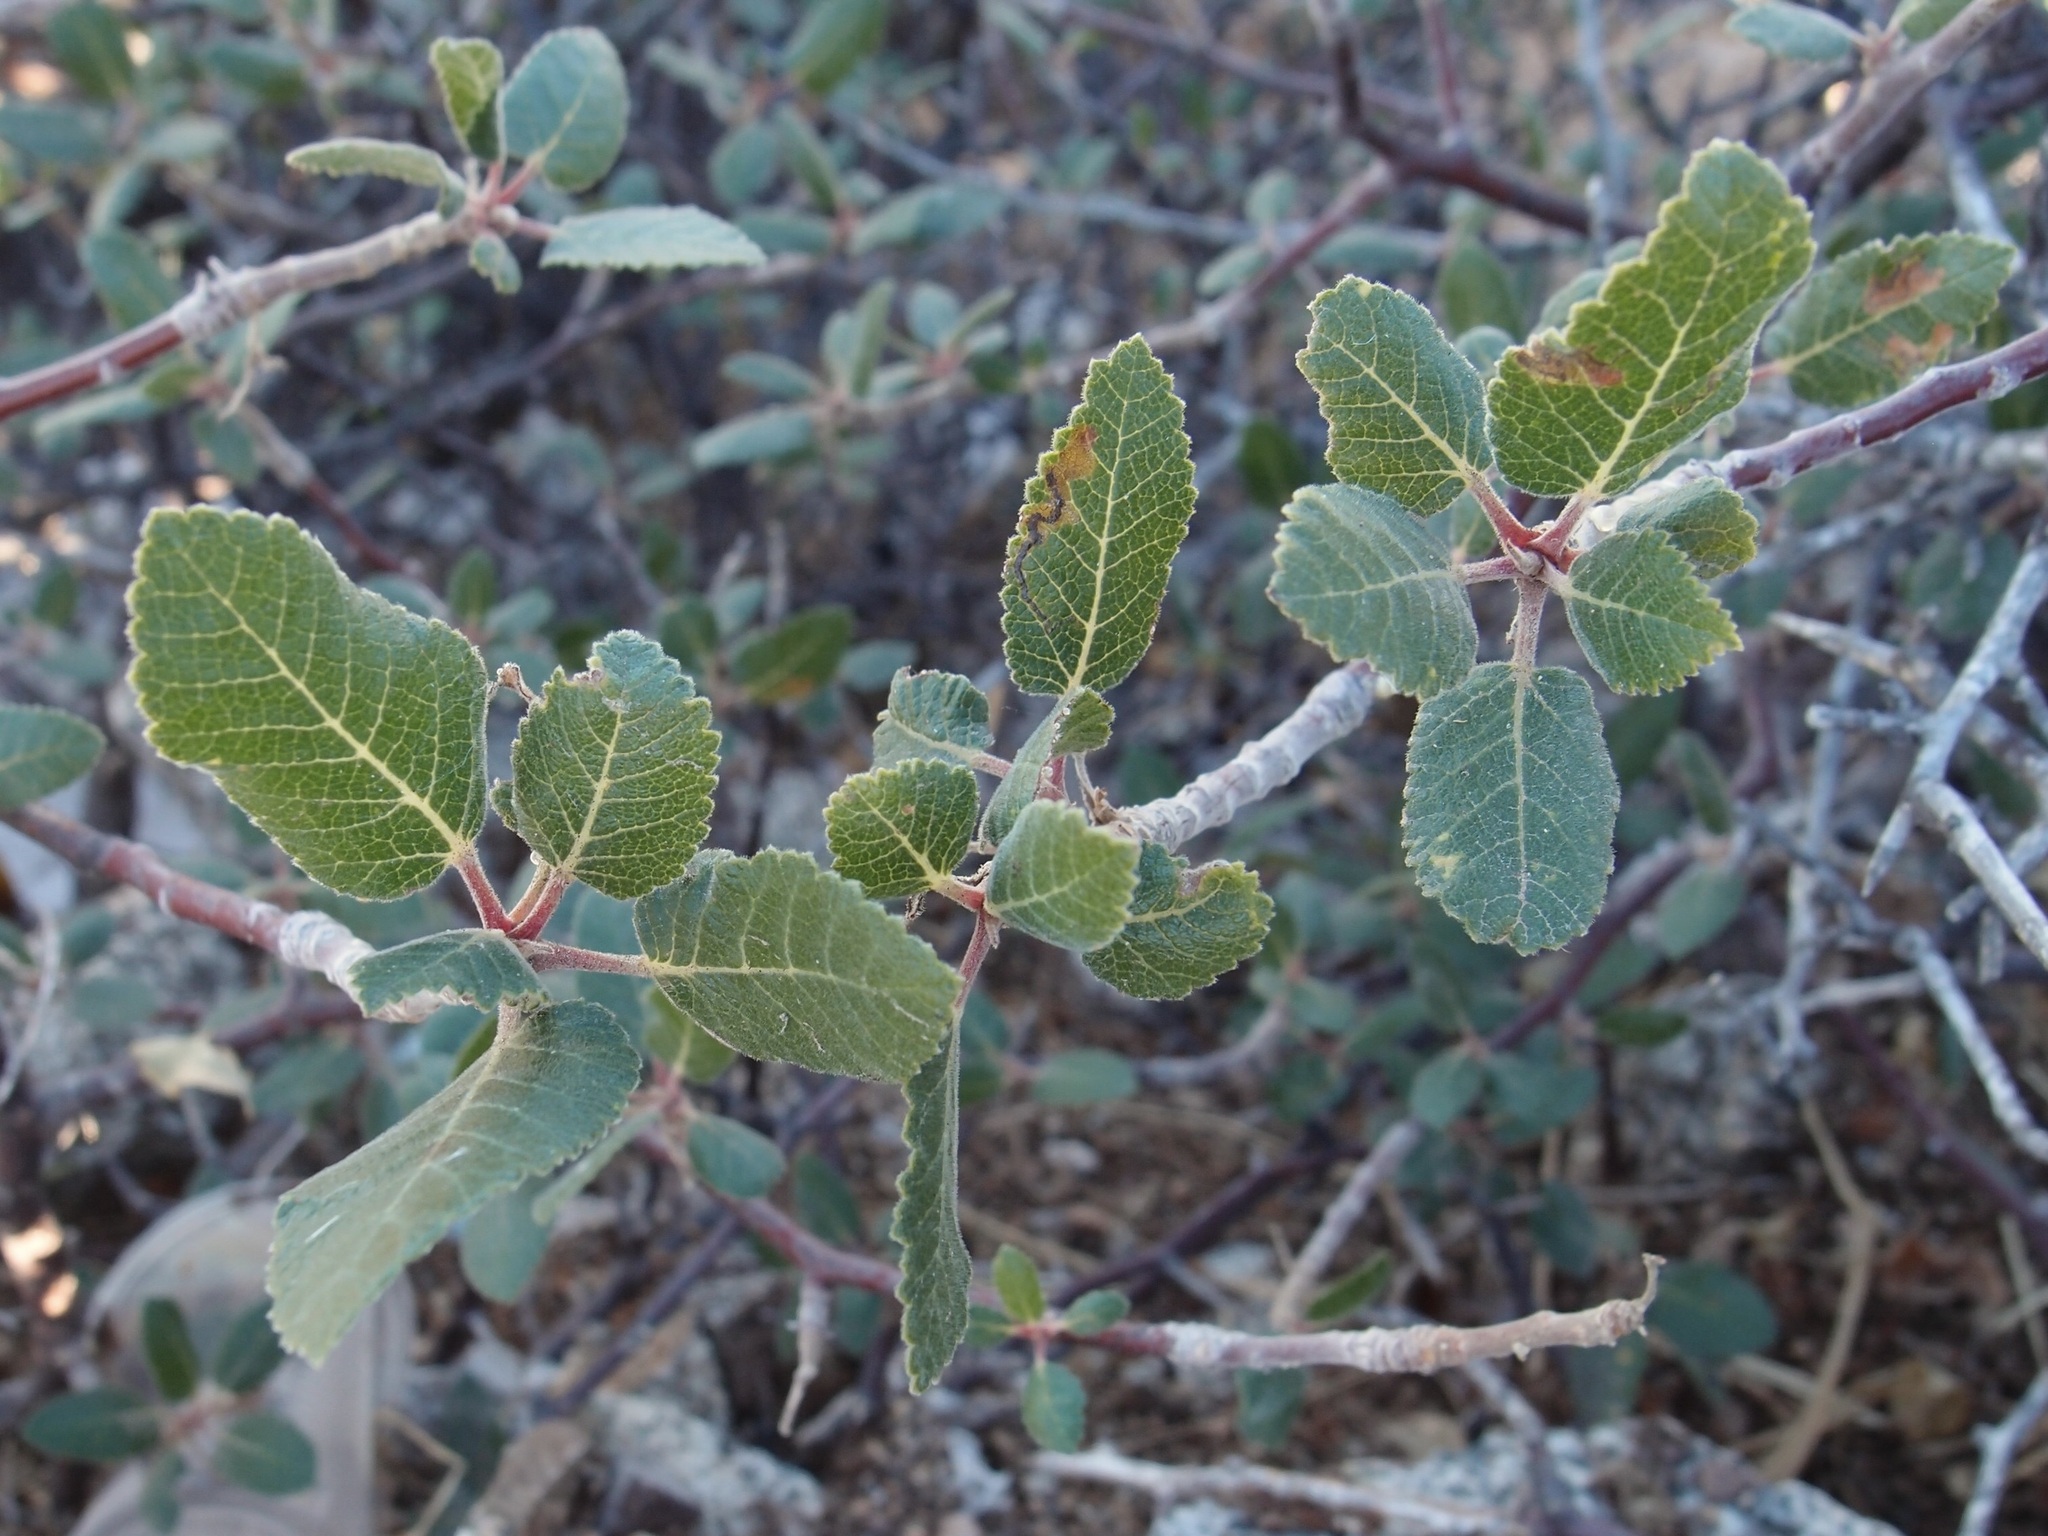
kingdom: Plantae
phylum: Tracheophyta
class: Magnoliopsida
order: Sapindales
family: Burseraceae
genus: Bursera
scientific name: Bursera hindsiana
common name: Red elephant tree
